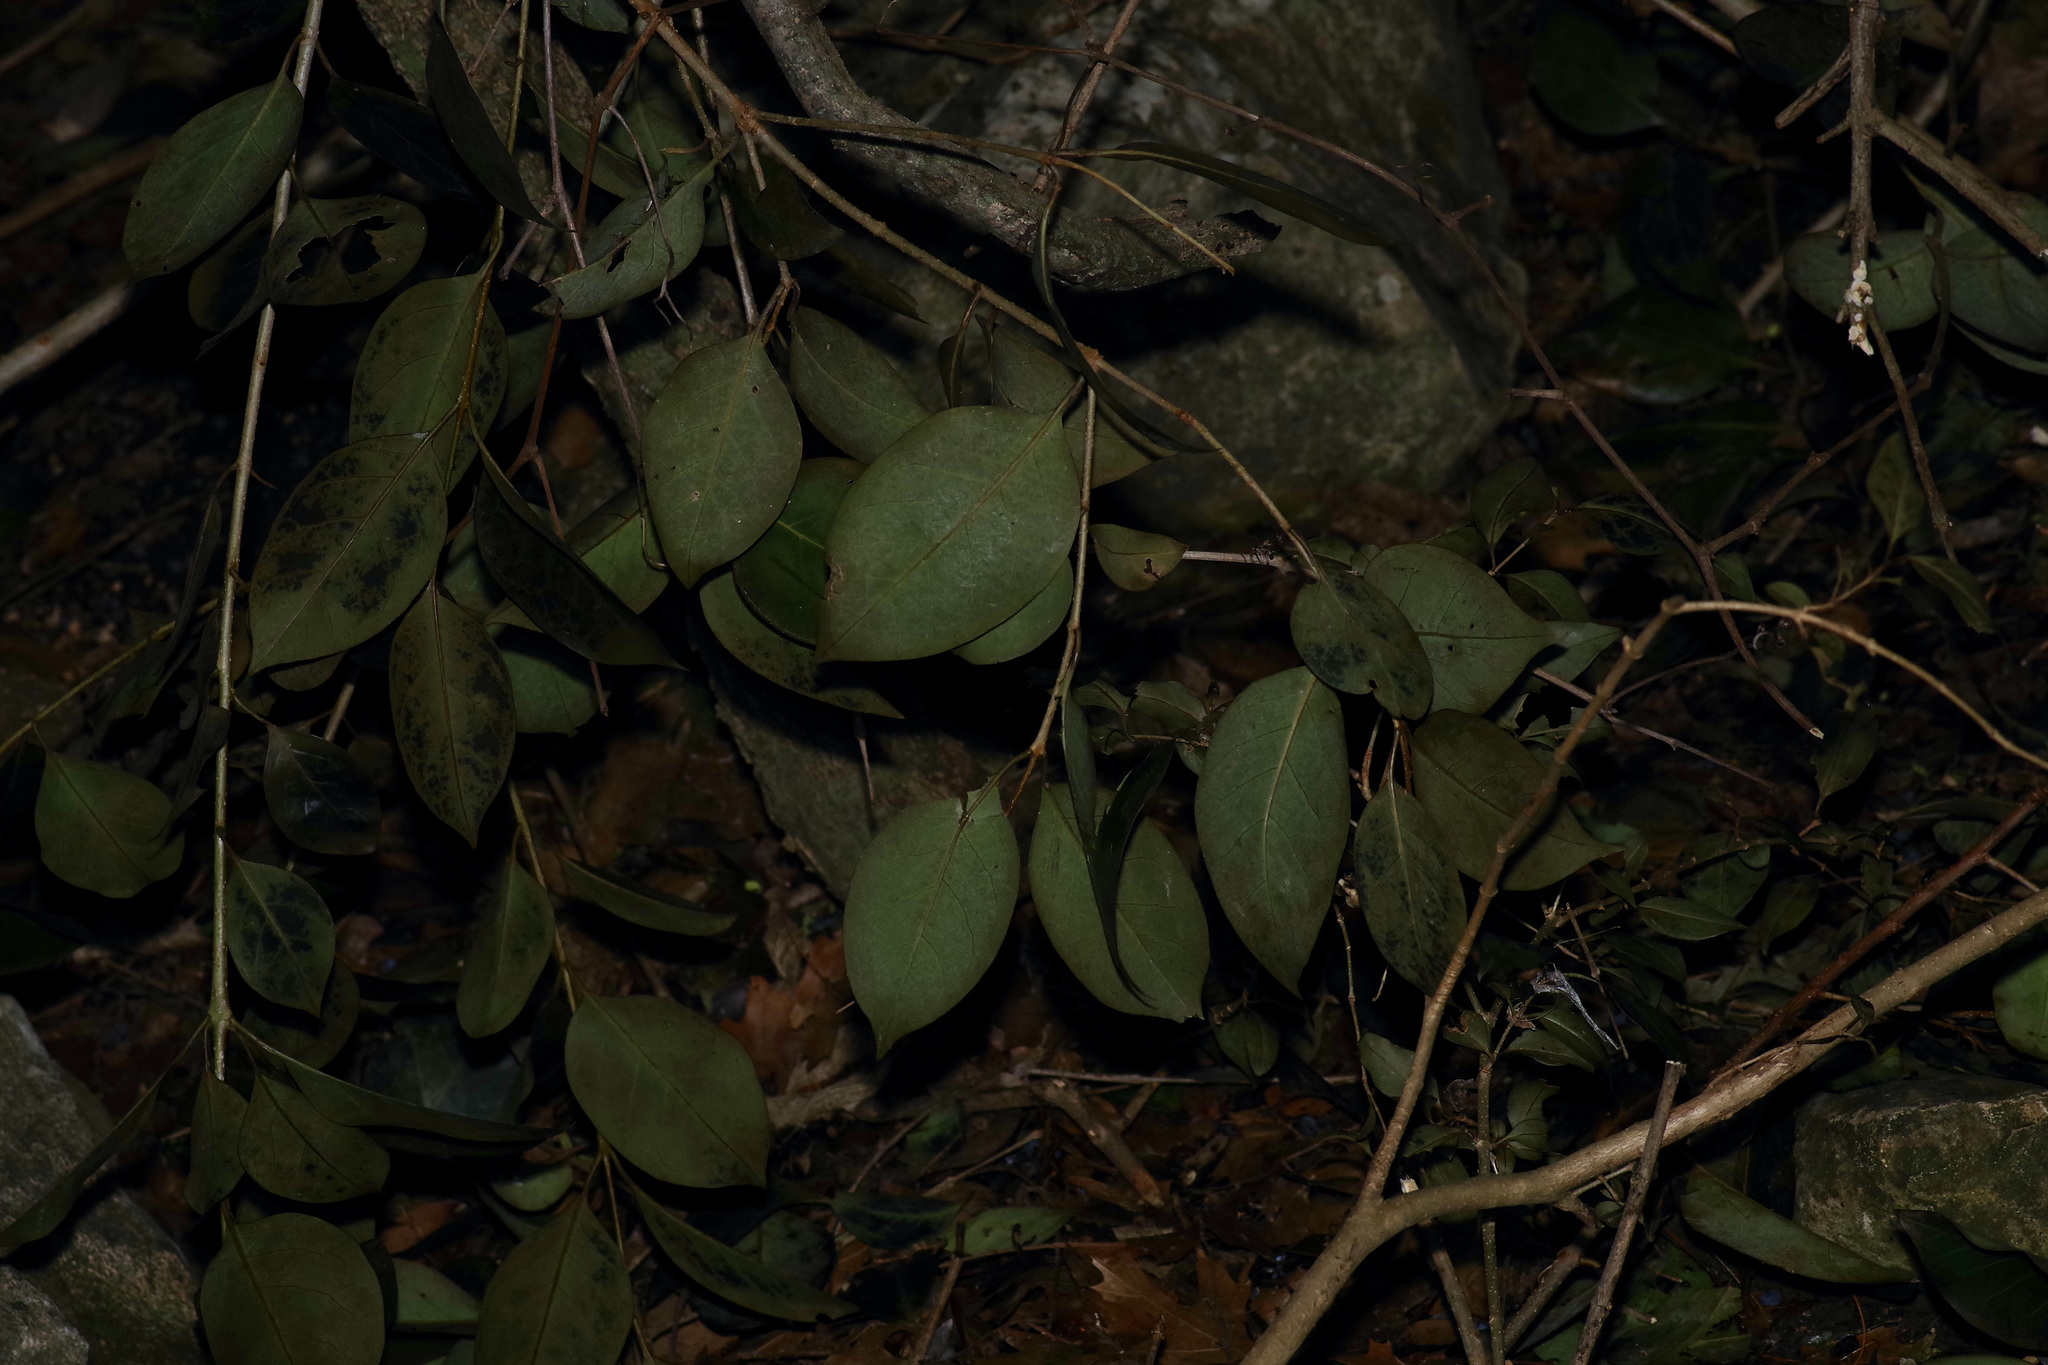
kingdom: Plantae
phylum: Tracheophyta
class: Magnoliopsida
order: Lamiales
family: Oleaceae
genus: Ligustrum
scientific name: Ligustrum lucidum
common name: Glossy privet
